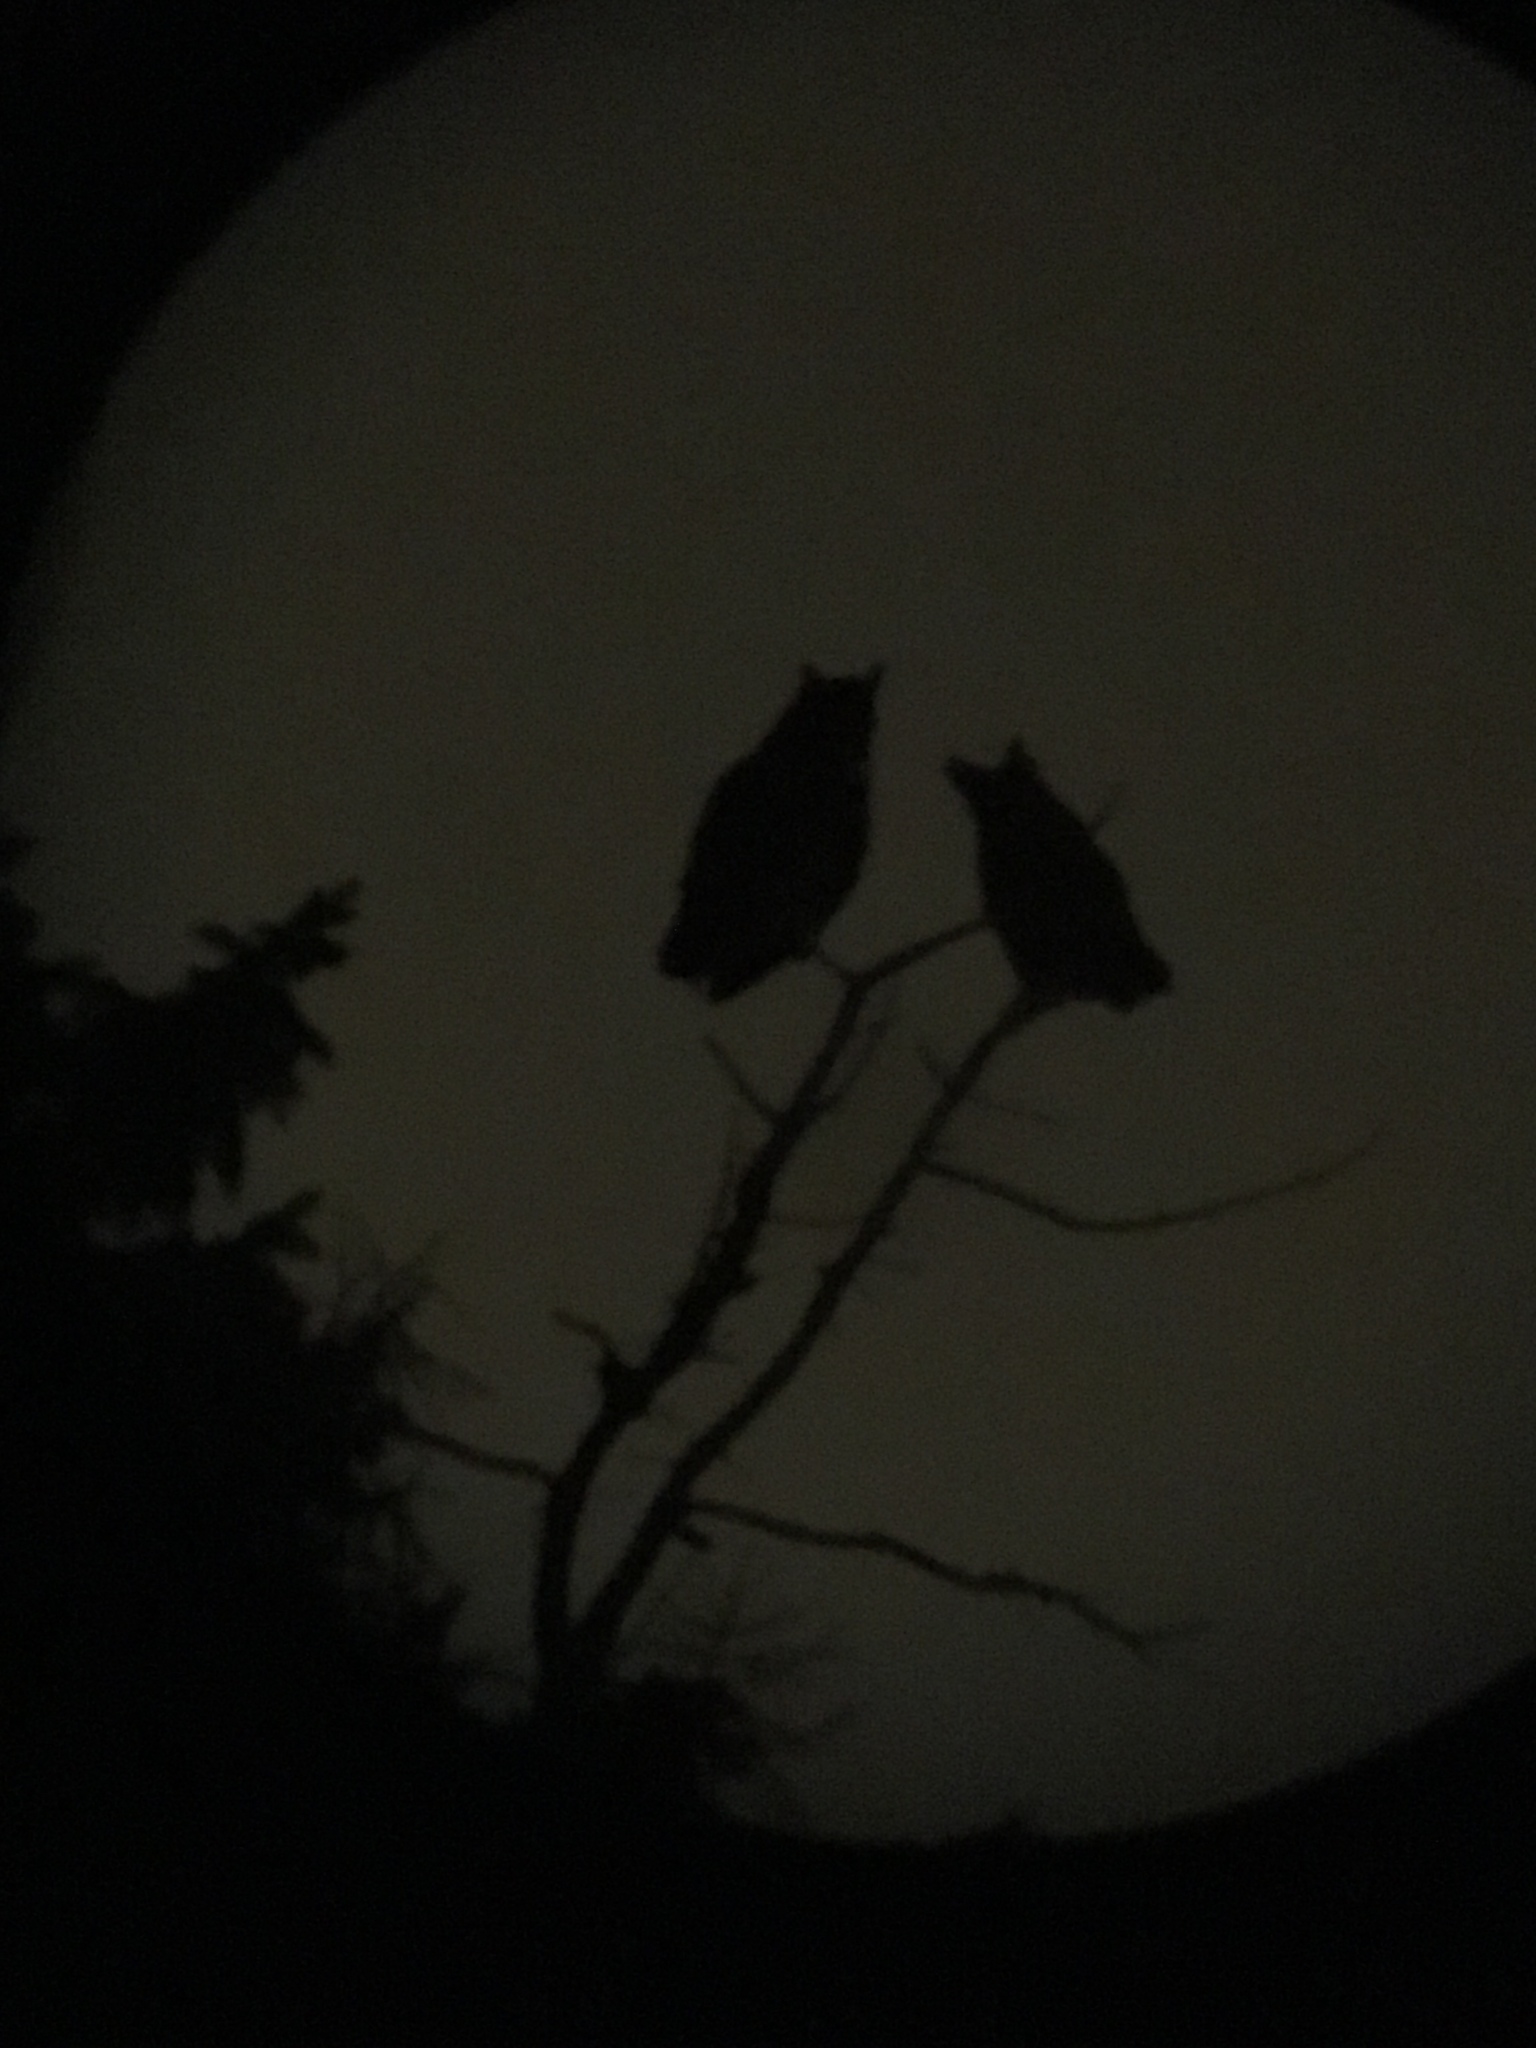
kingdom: Animalia
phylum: Chordata
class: Aves
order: Strigiformes
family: Strigidae
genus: Bubo
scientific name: Bubo virginianus
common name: Great horned owl
